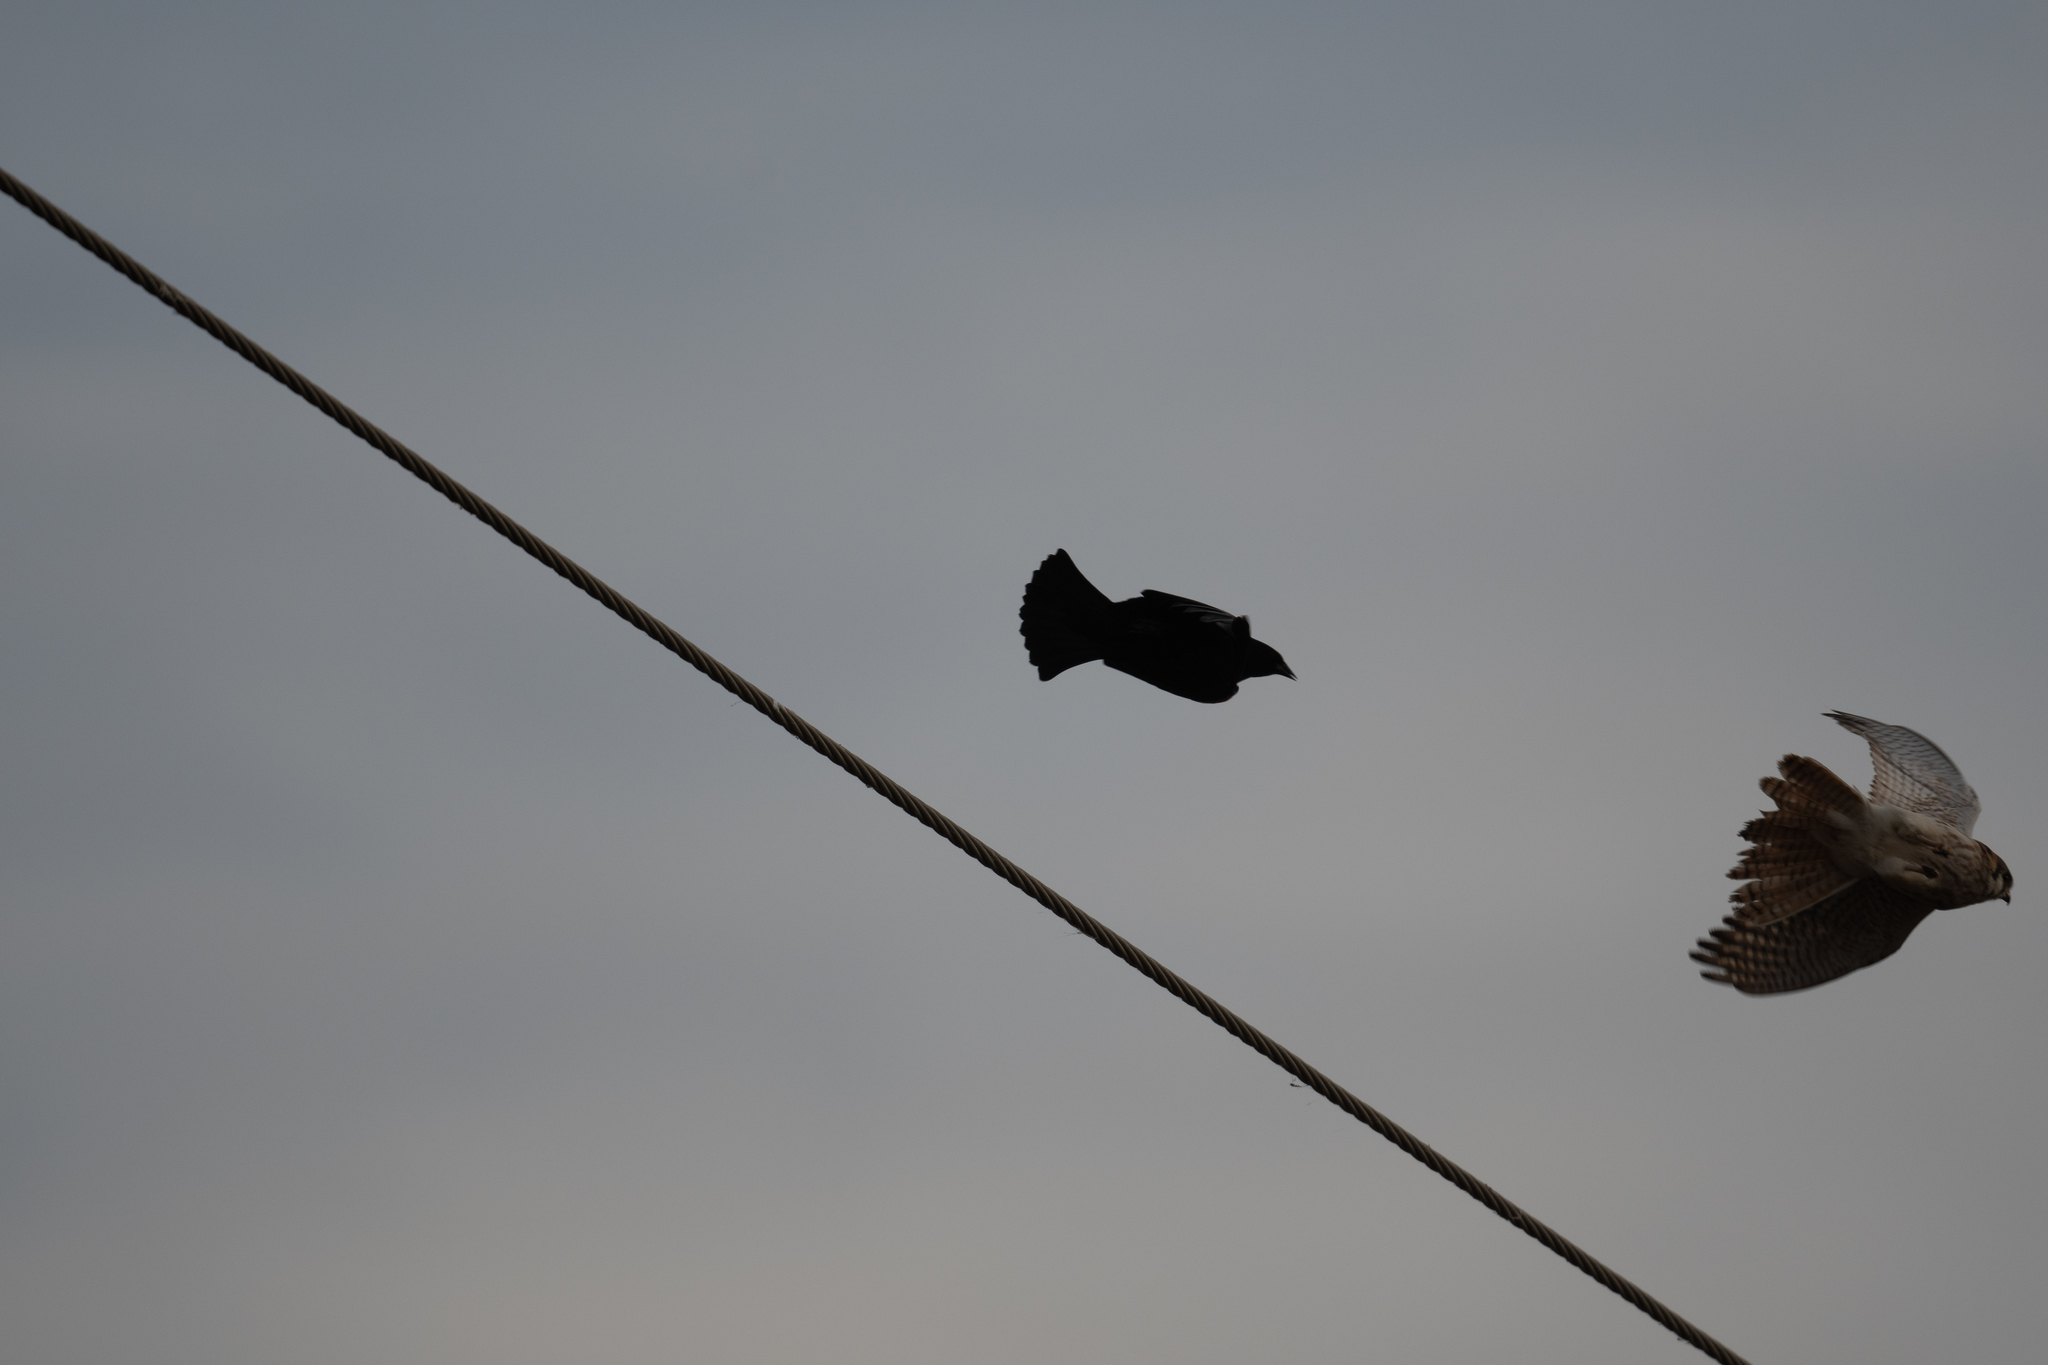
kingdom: Animalia
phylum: Chordata
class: Aves
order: Passeriformes
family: Icteridae
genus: Agelaius
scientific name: Agelaius phoeniceus
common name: Red-winged blackbird
